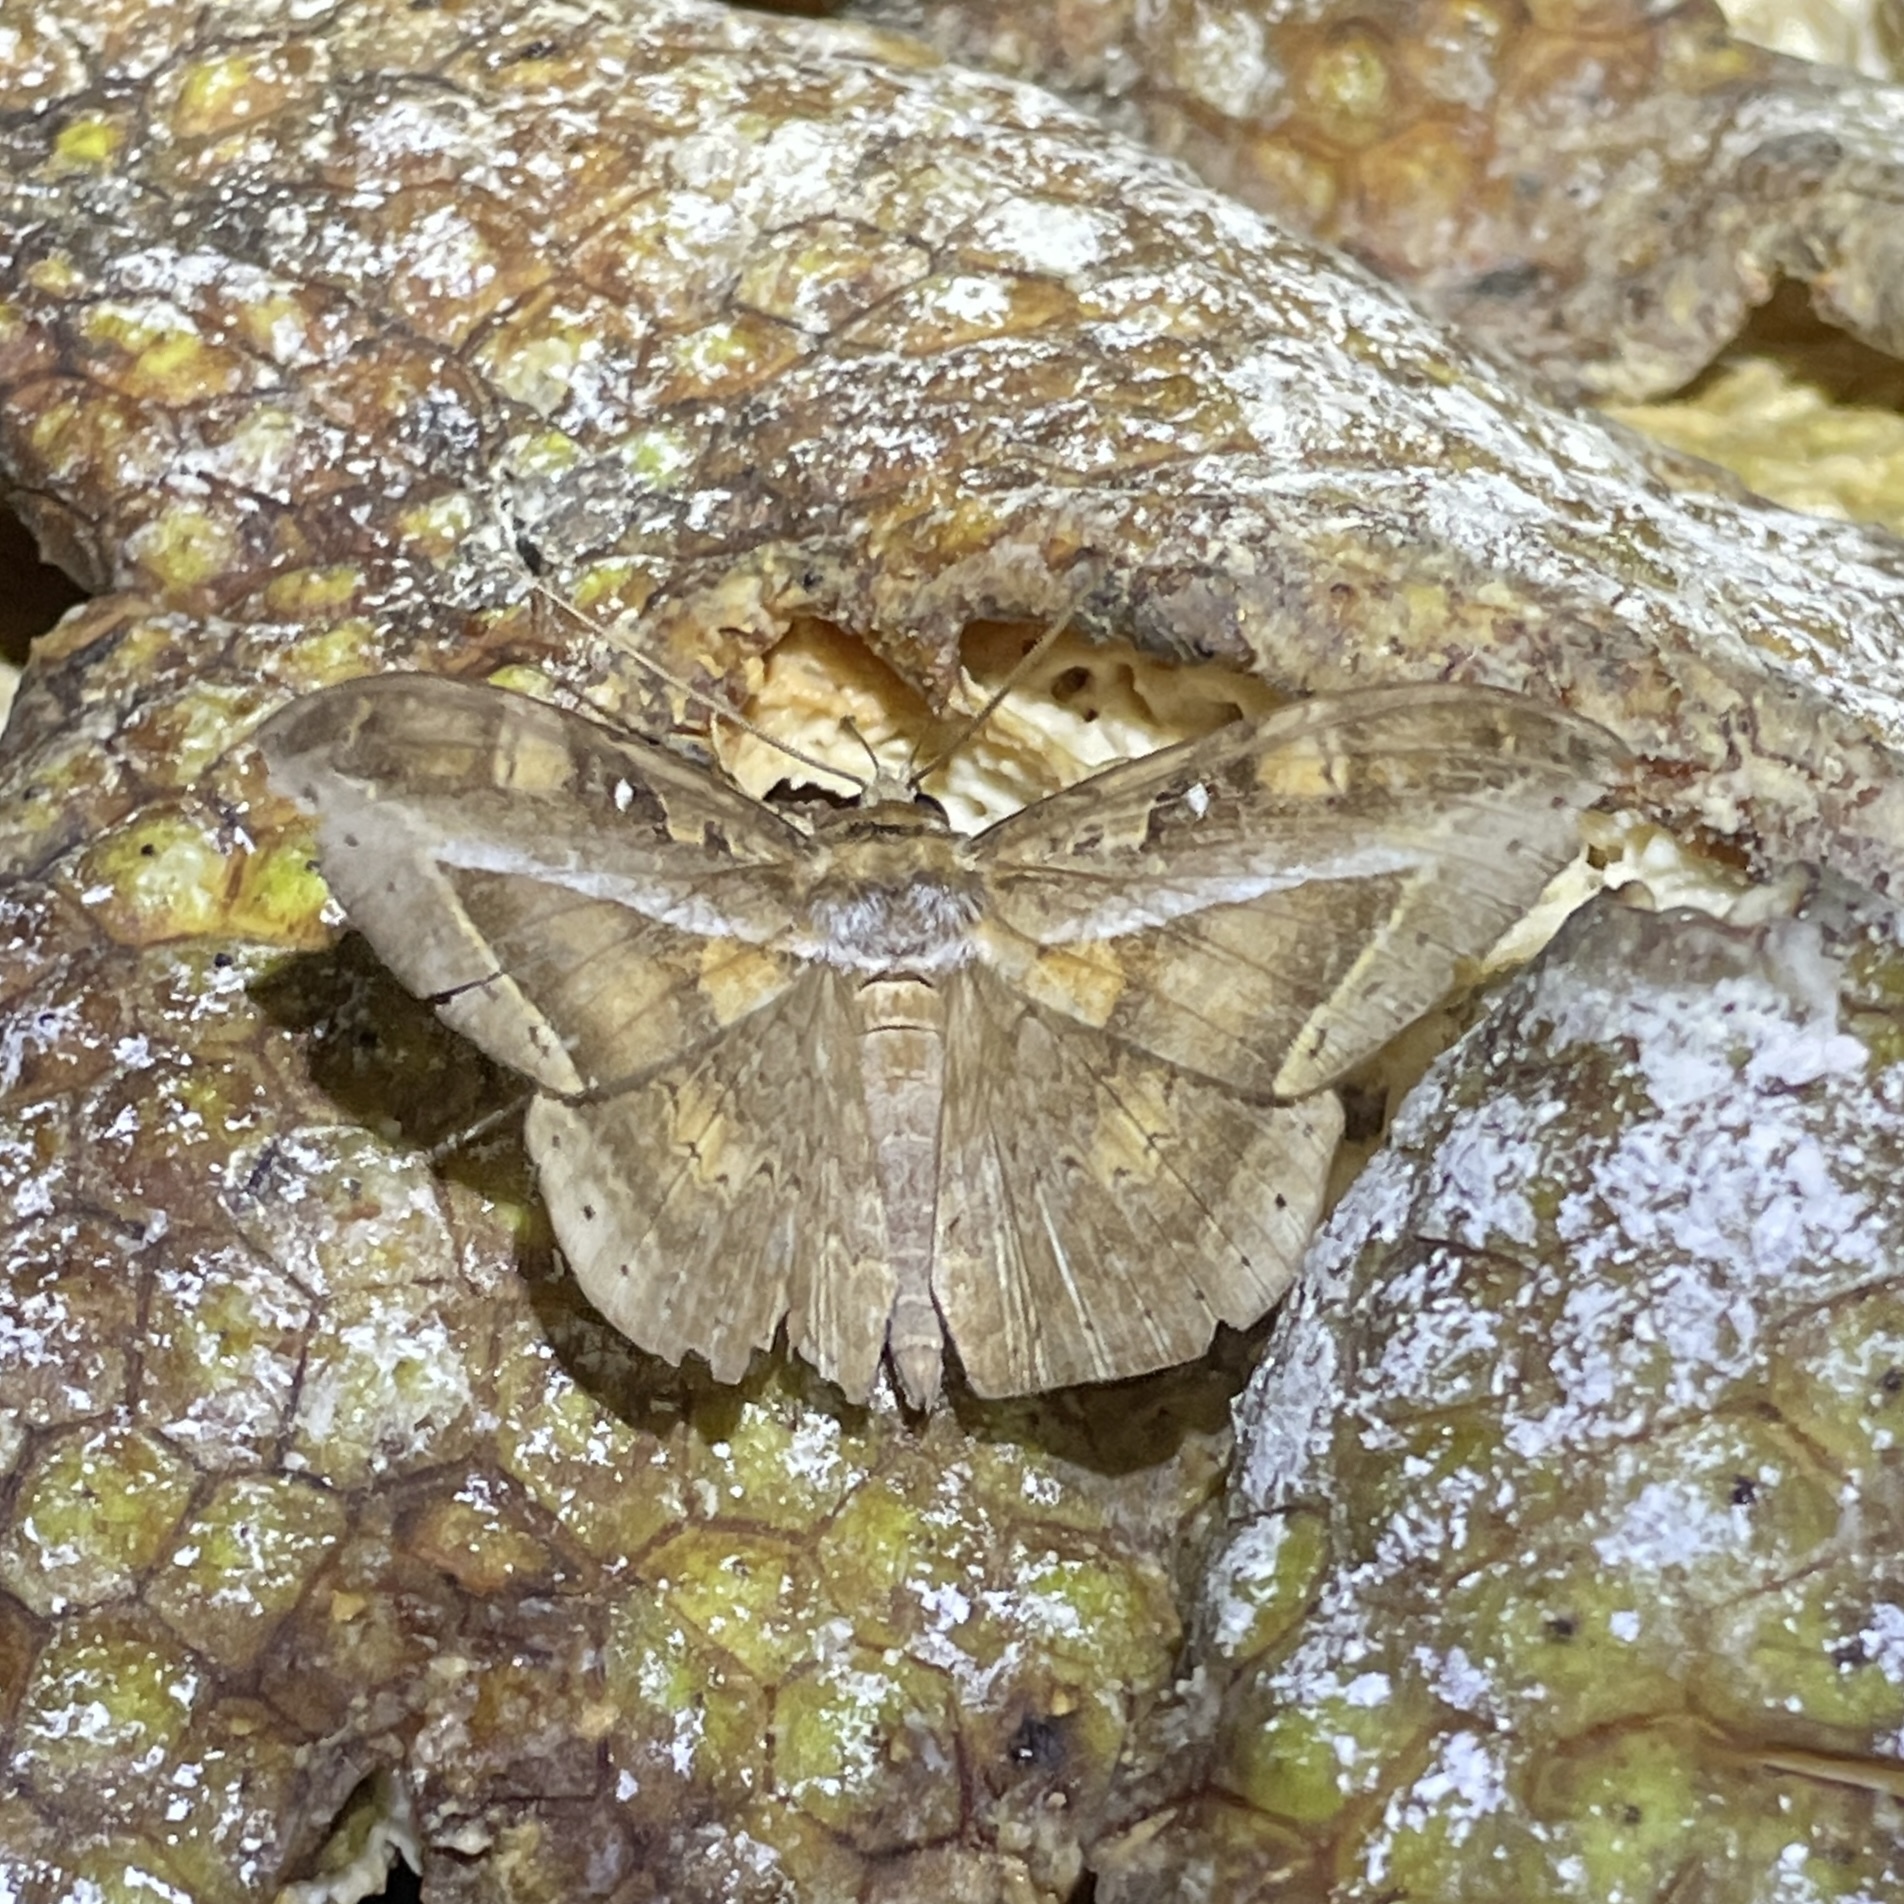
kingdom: Animalia
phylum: Arthropoda
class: Insecta
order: Lepidoptera
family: Erebidae
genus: Hemeroblemma
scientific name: Hemeroblemma opigena
